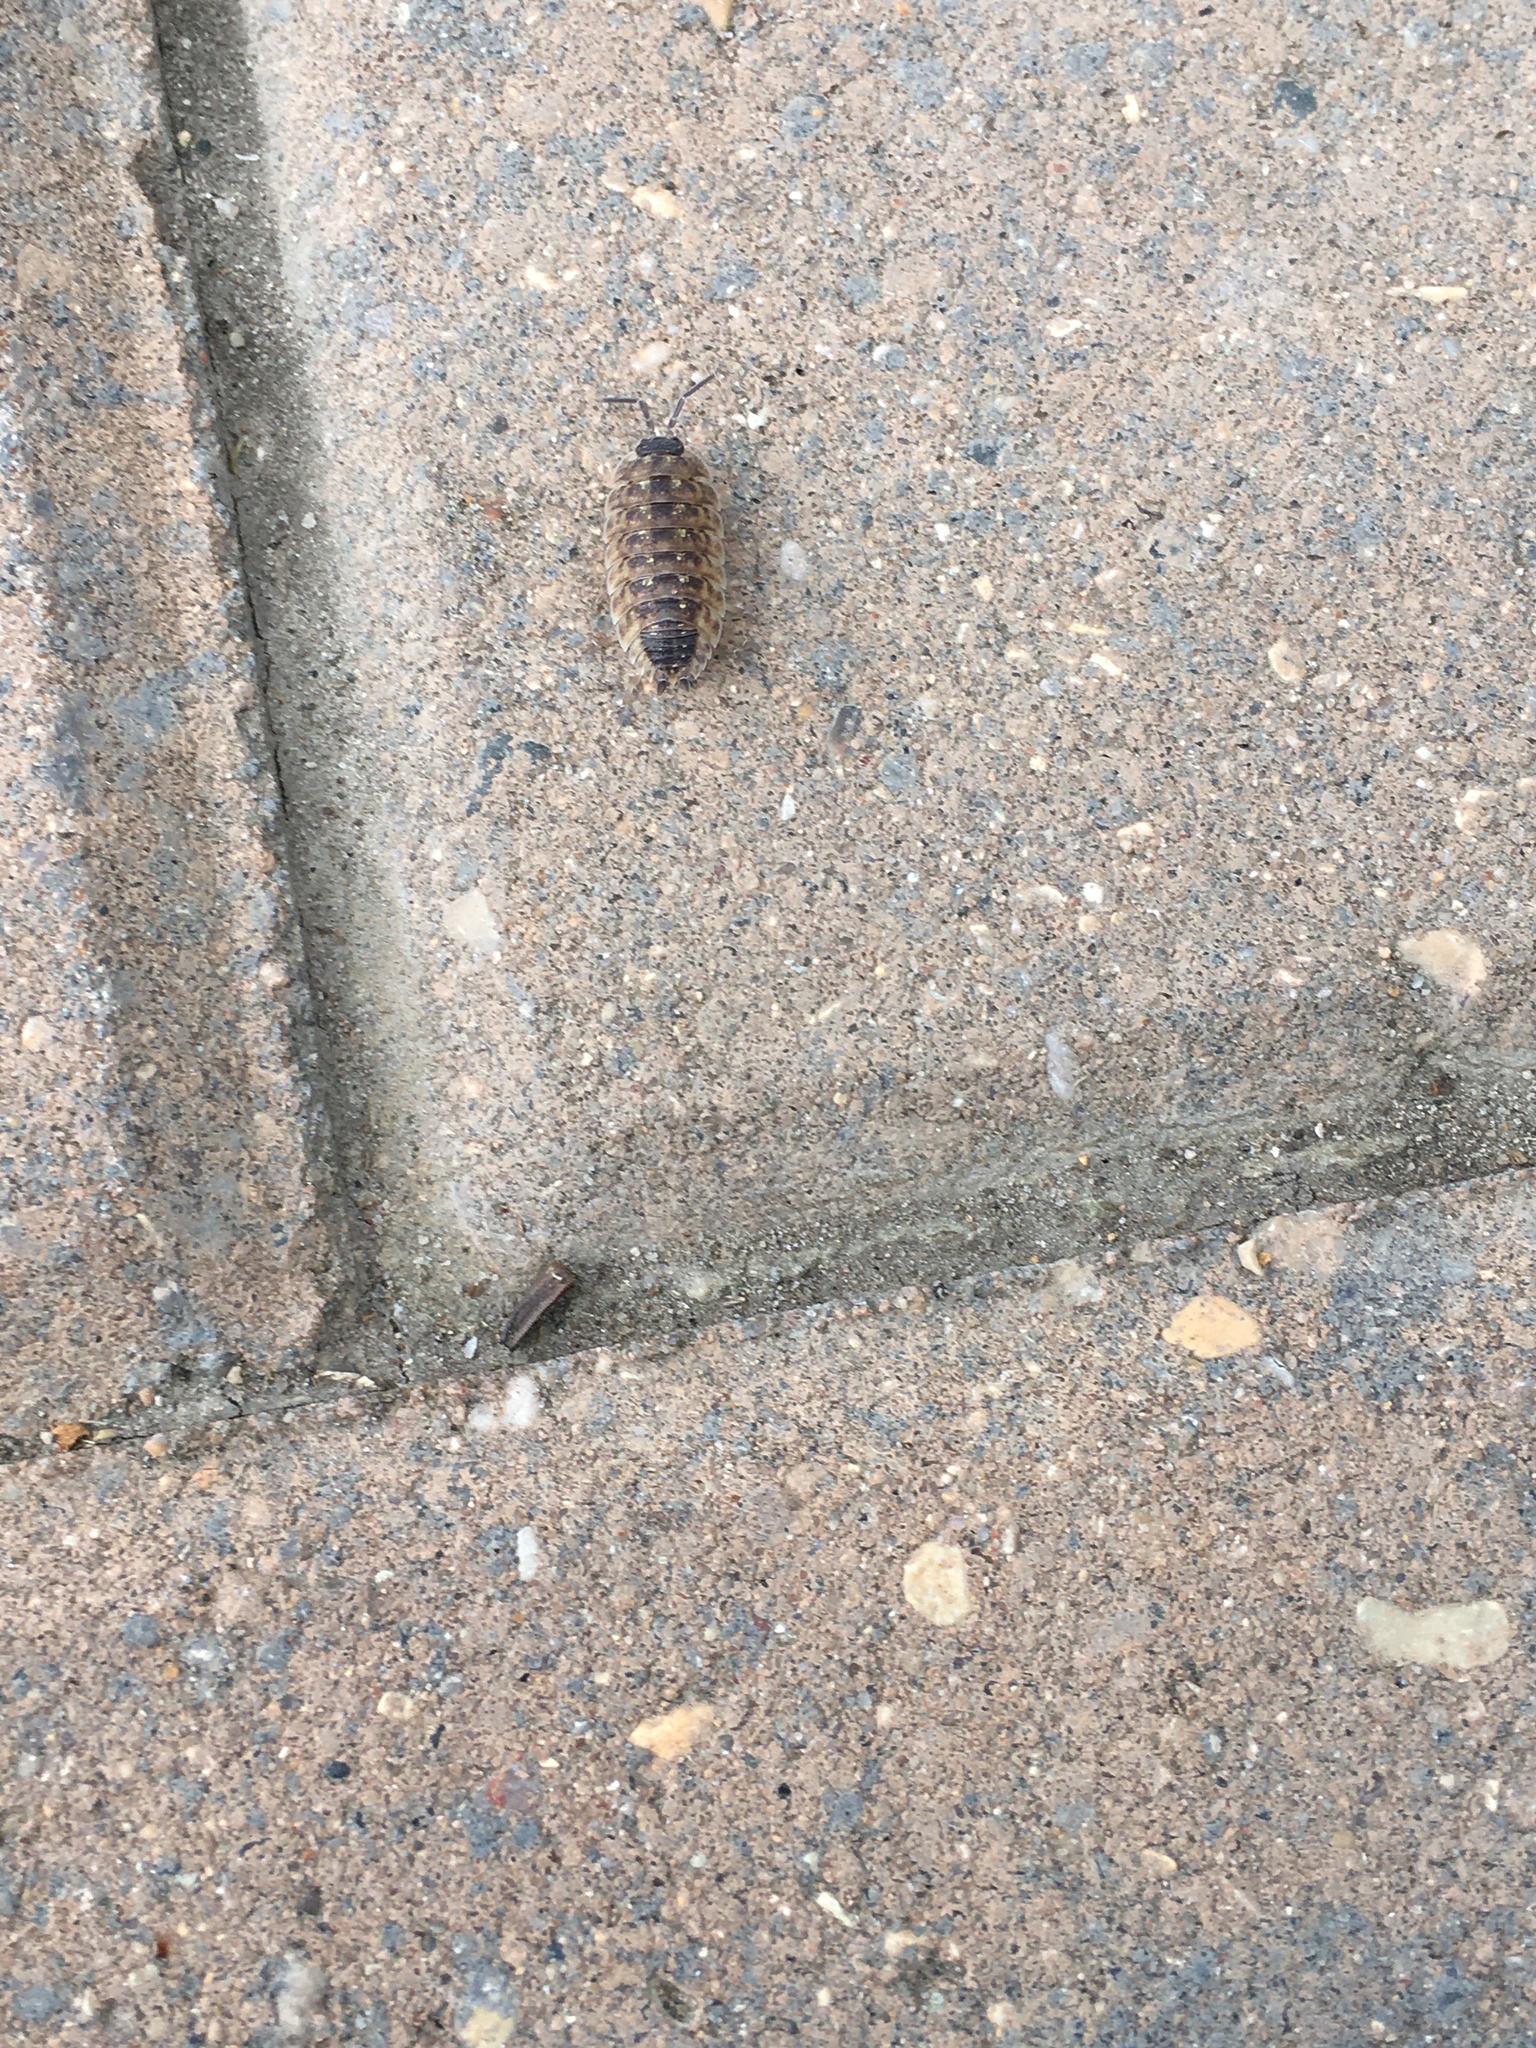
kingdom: Animalia
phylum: Arthropoda
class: Malacostraca
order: Isopoda
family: Porcellionidae
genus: Porcellio
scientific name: Porcellio spinicornis
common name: Painted woodlouse
